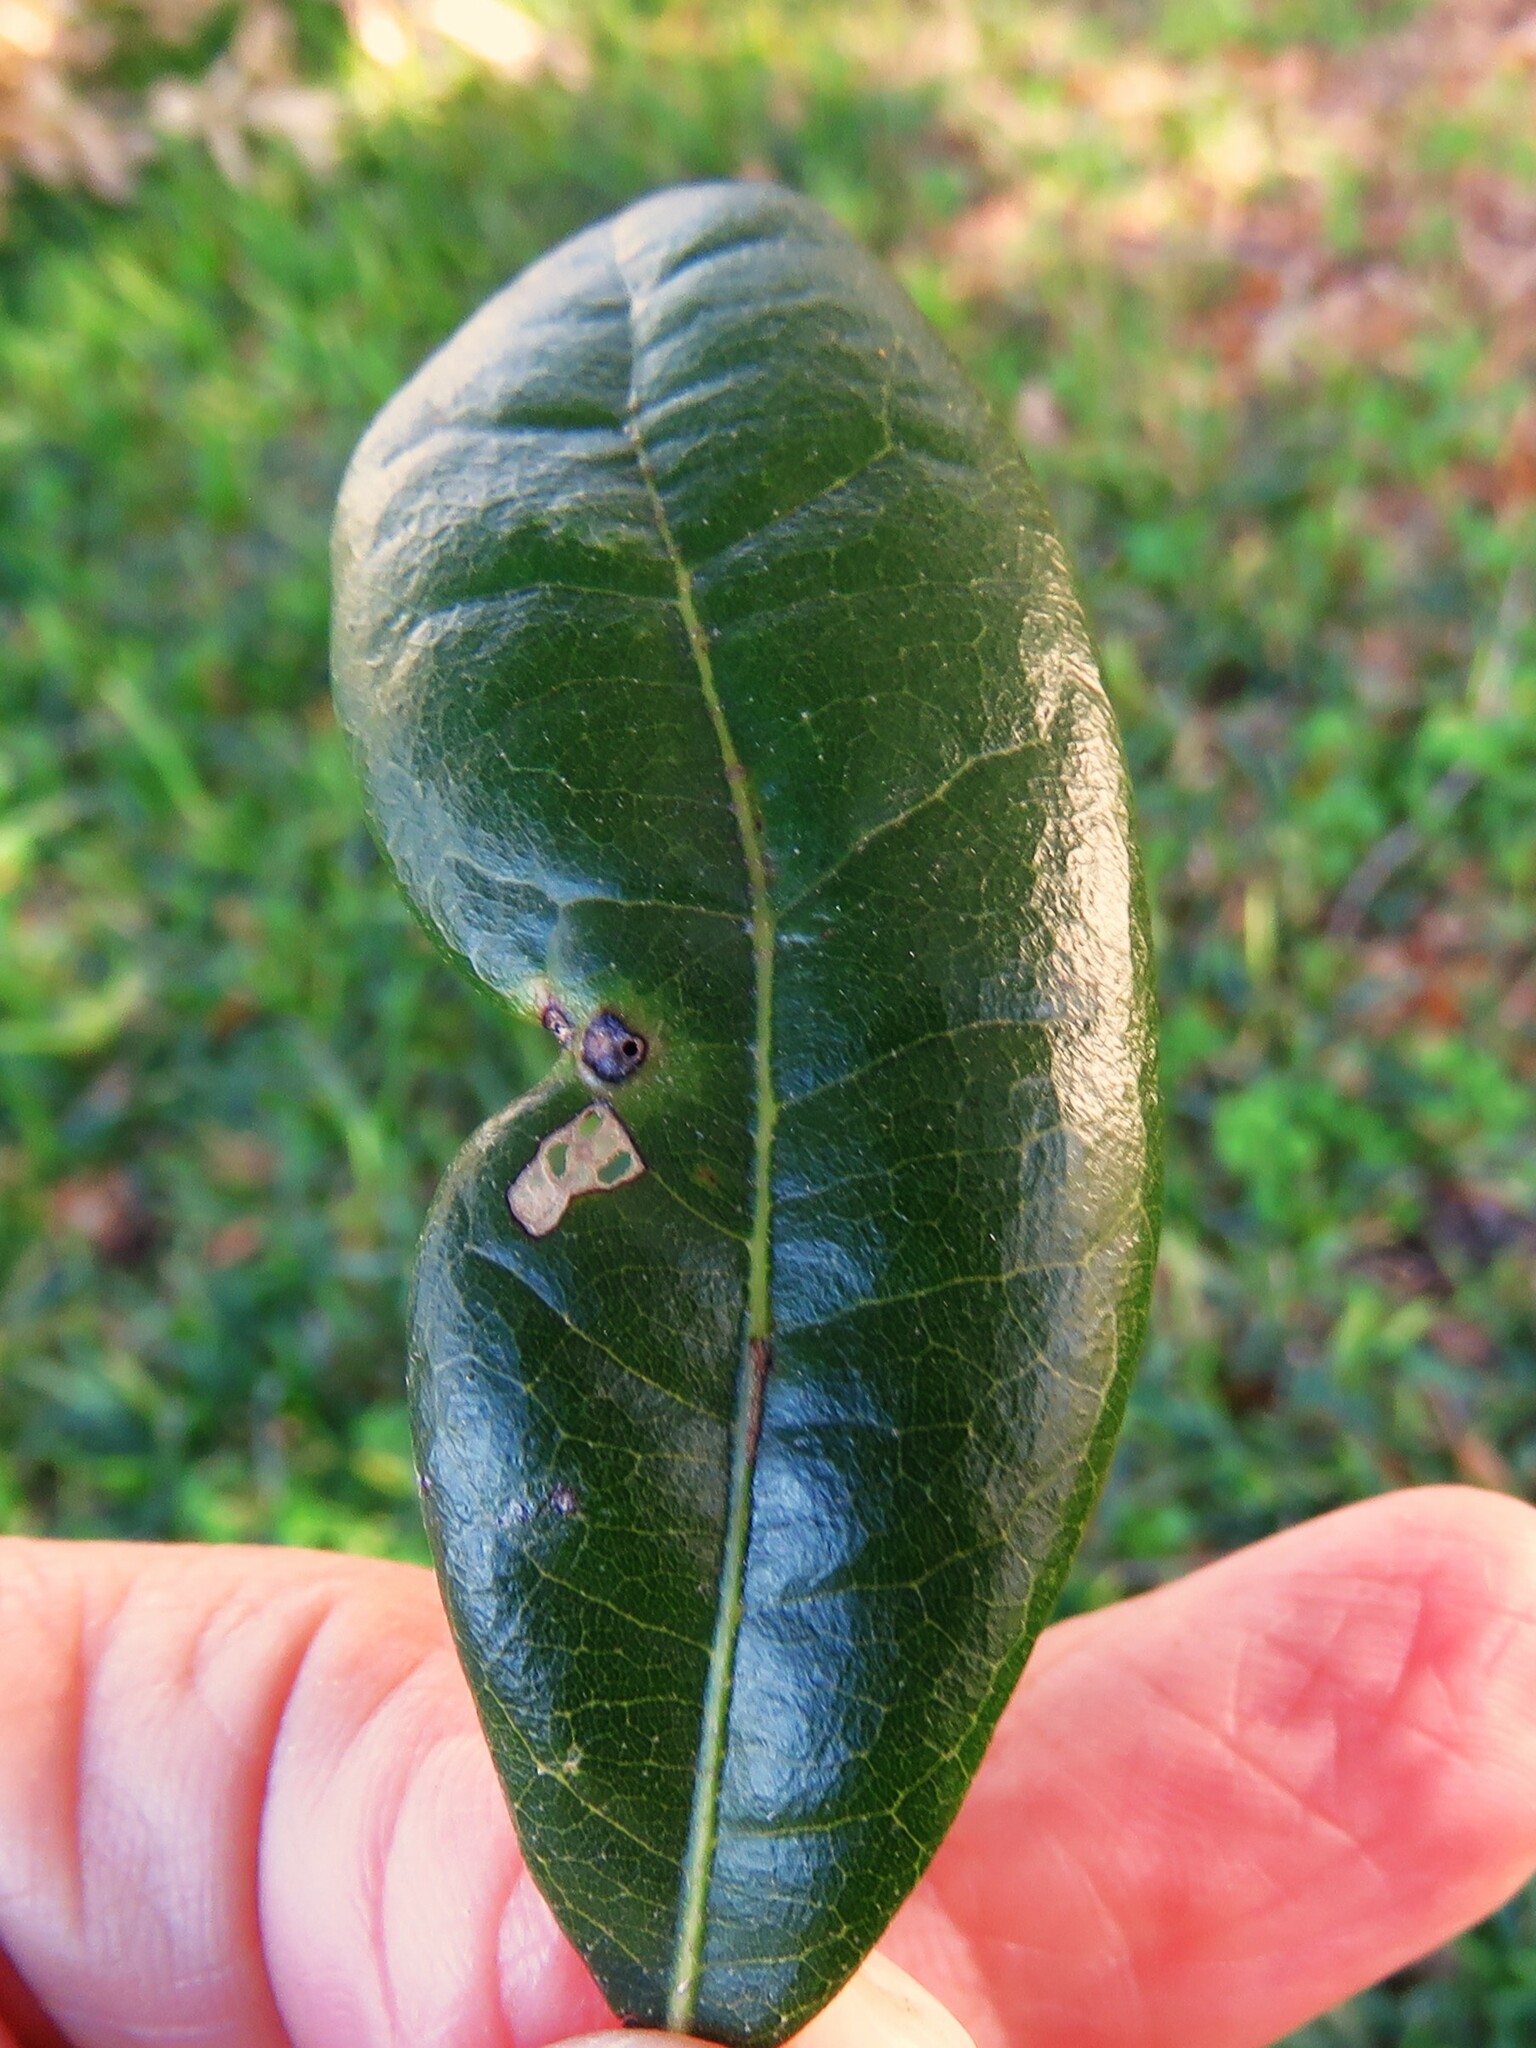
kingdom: Animalia
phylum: Arthropoda
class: Insecta
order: Hymenoptera
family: Cynipidae
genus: Andricus
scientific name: Andricus Druon quercuslanigerum
